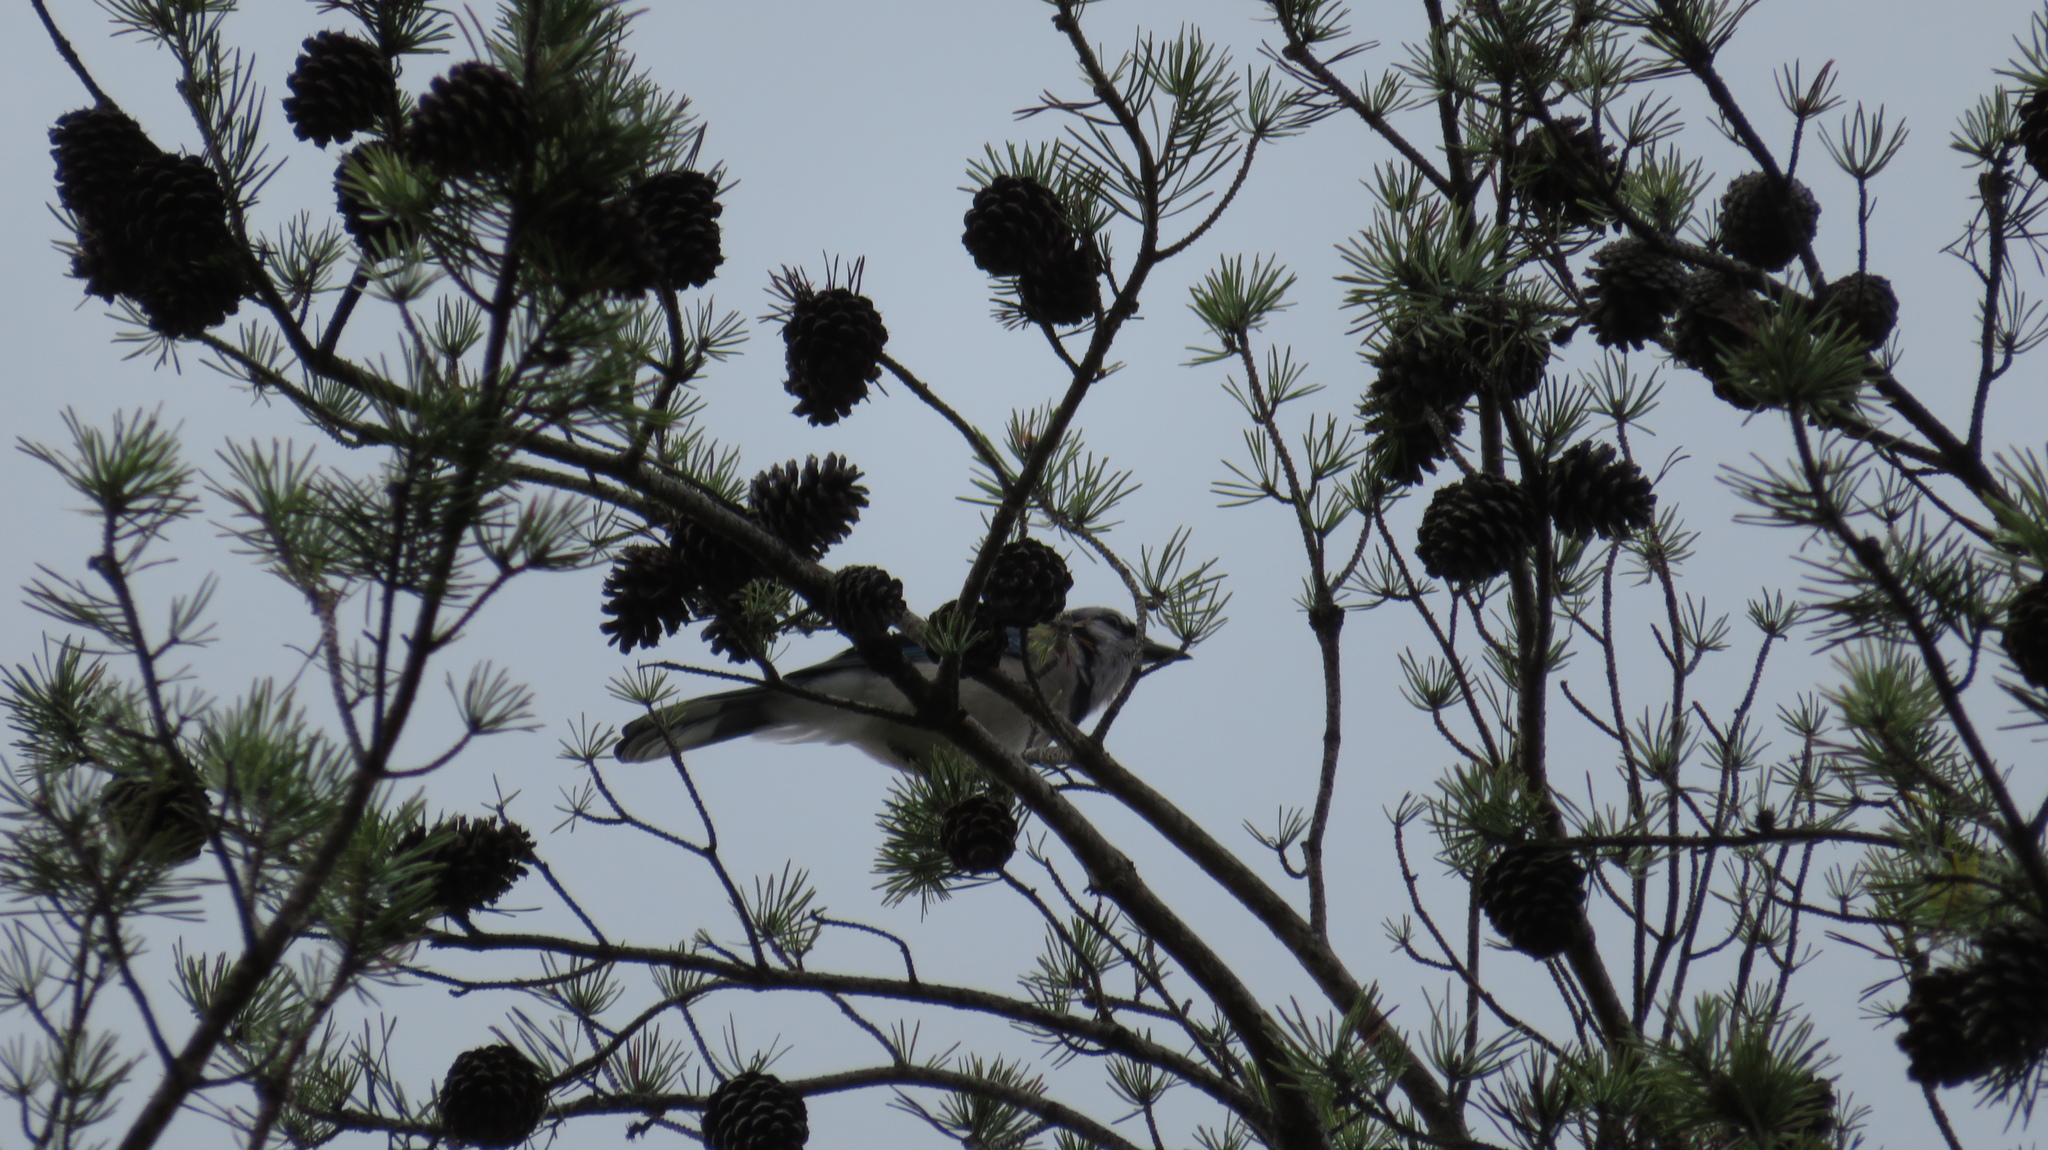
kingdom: Animalia
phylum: Chordata
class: Aves
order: Passeriformes
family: Corvidae
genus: Cyanocitta
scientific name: Cyanocitta cristata
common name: Blue jay
